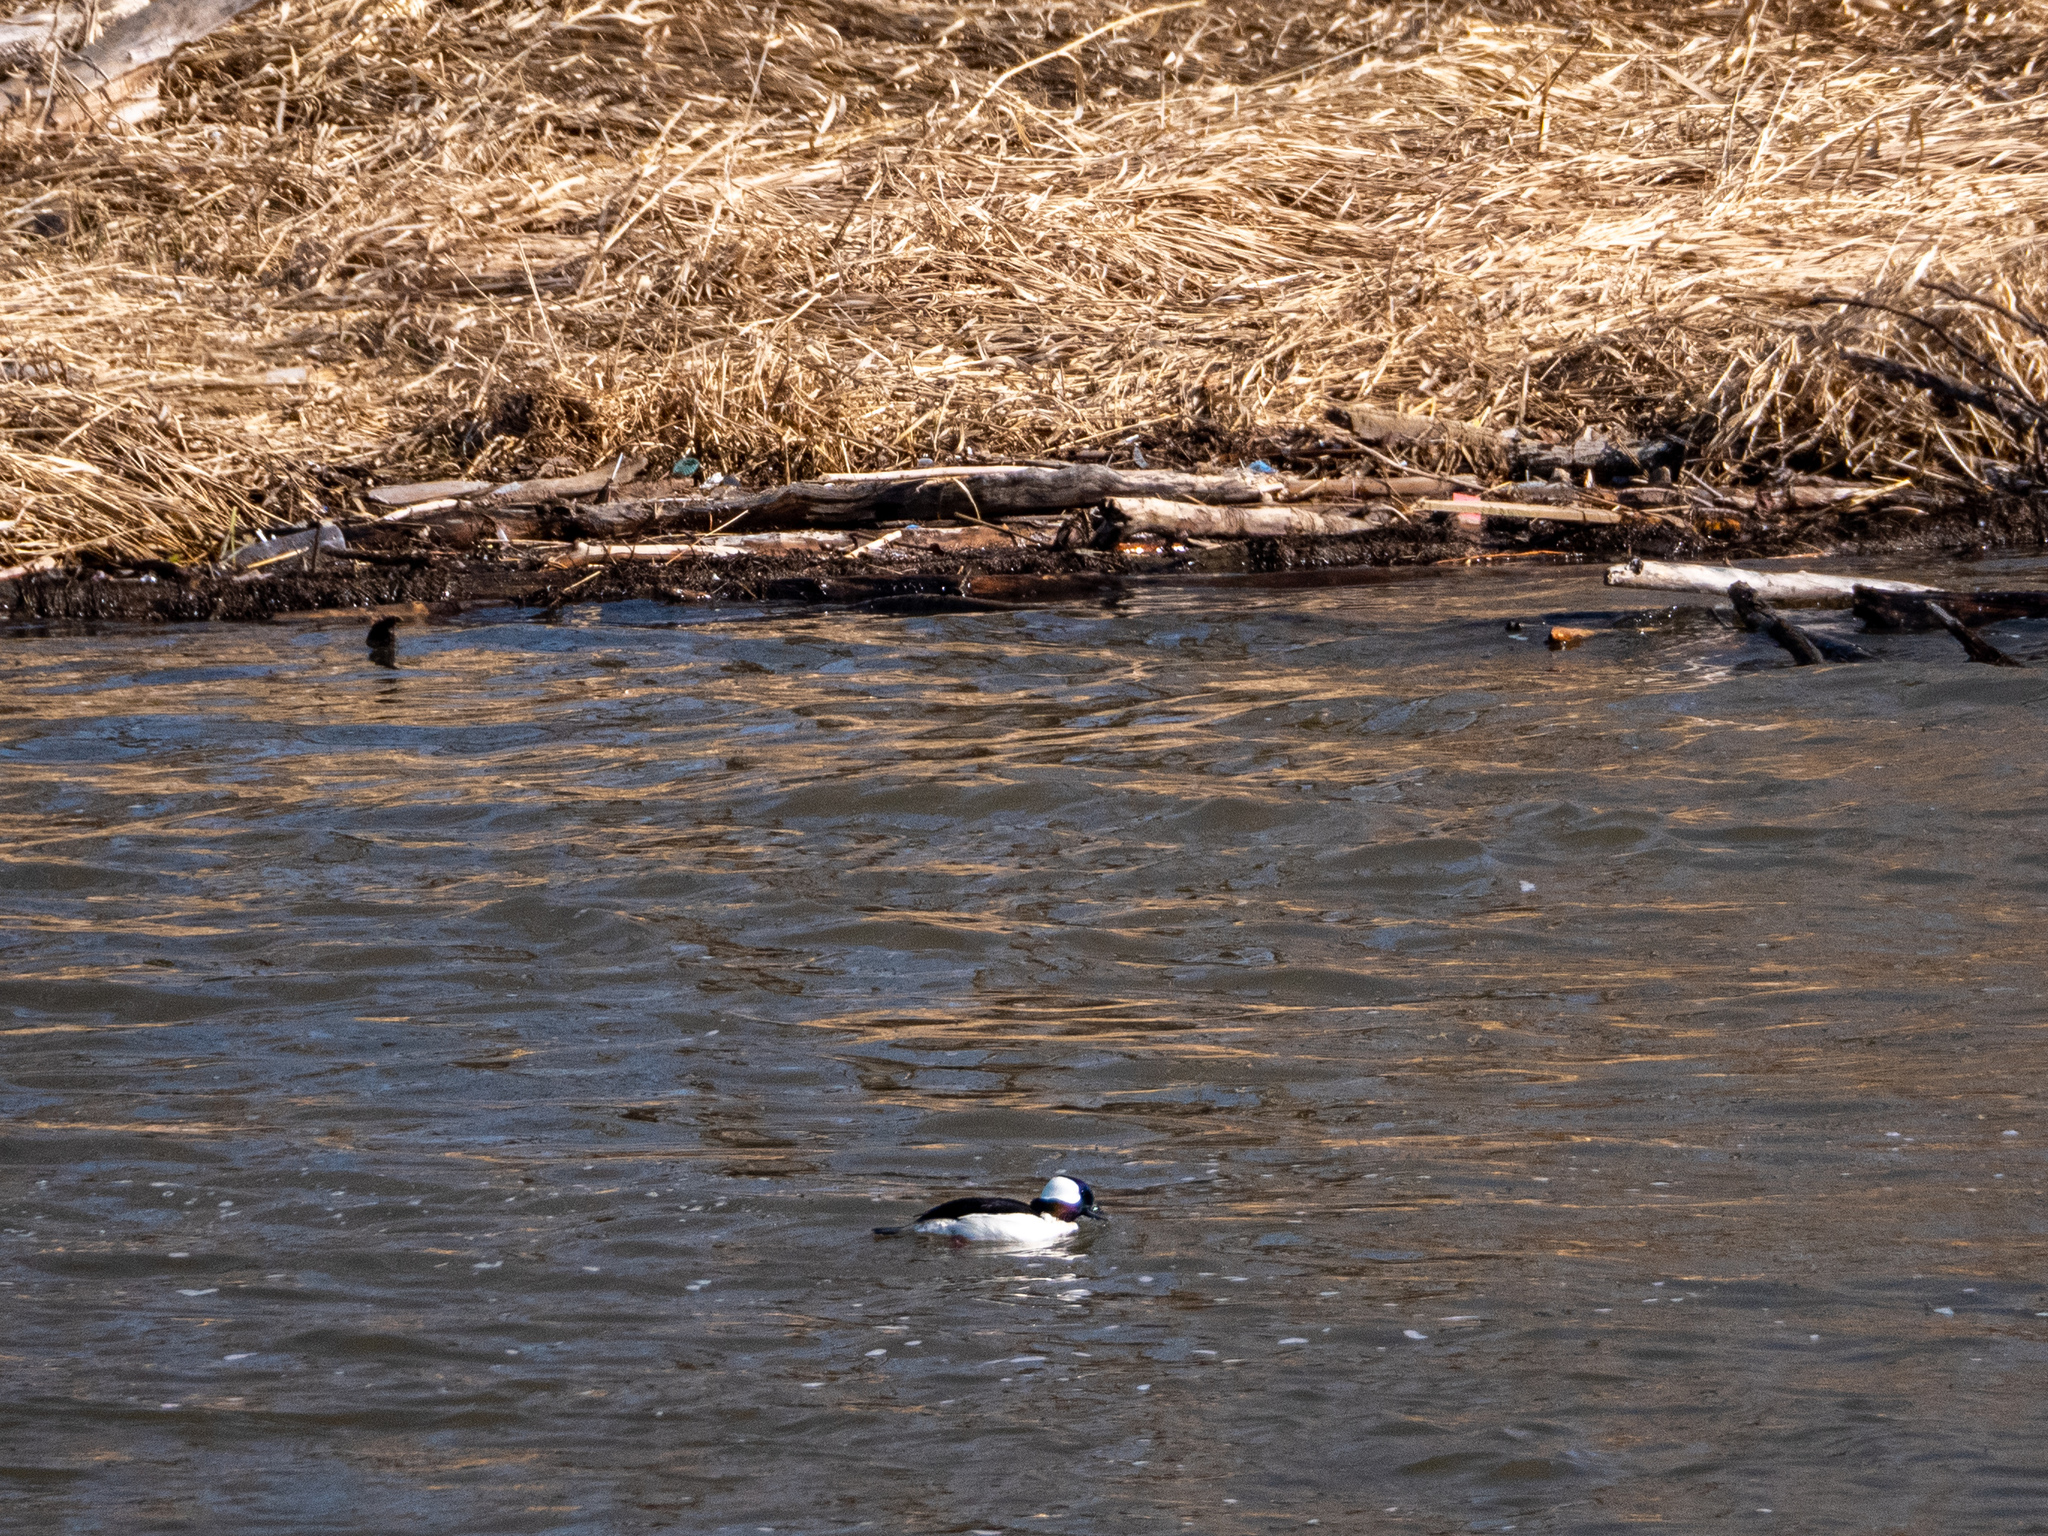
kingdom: Animalia
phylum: Chordata
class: Aves
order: Anseriformes
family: Anatidae
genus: Bucephala
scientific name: Bucephala albeola
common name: Bufflehead
